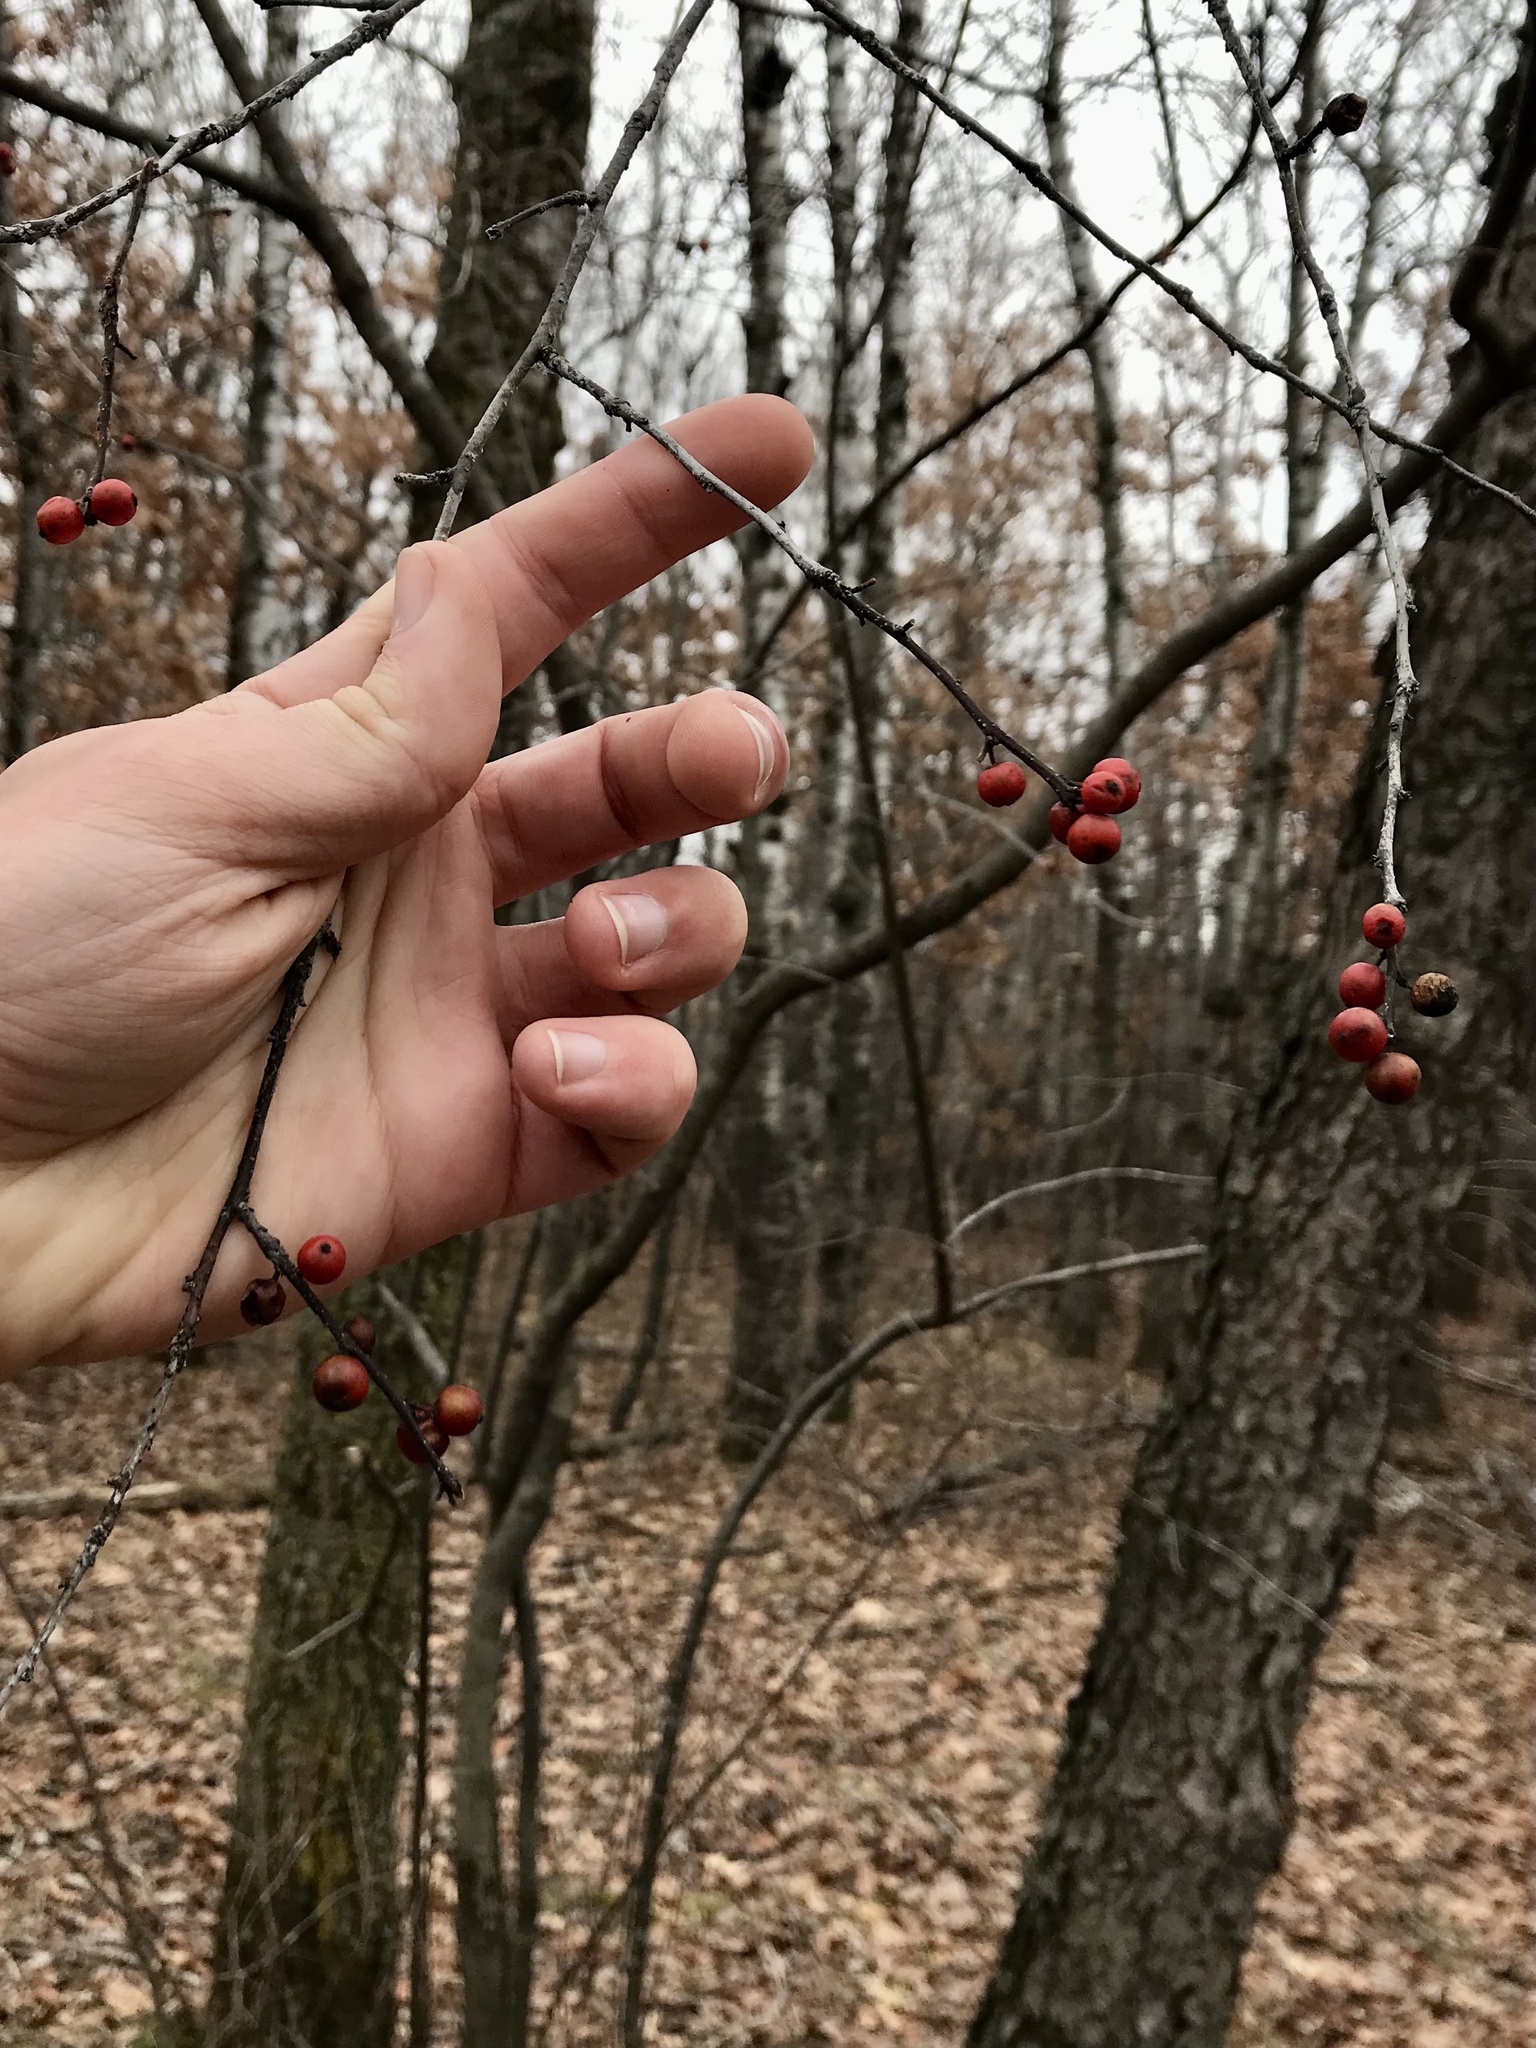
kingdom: Plantae
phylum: Tracheophyta
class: Magnoliopsida
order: Aquifoliales
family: Aquifoliaceae
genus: Ilex
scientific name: Ilex verticillata
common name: Virginia winterberry
